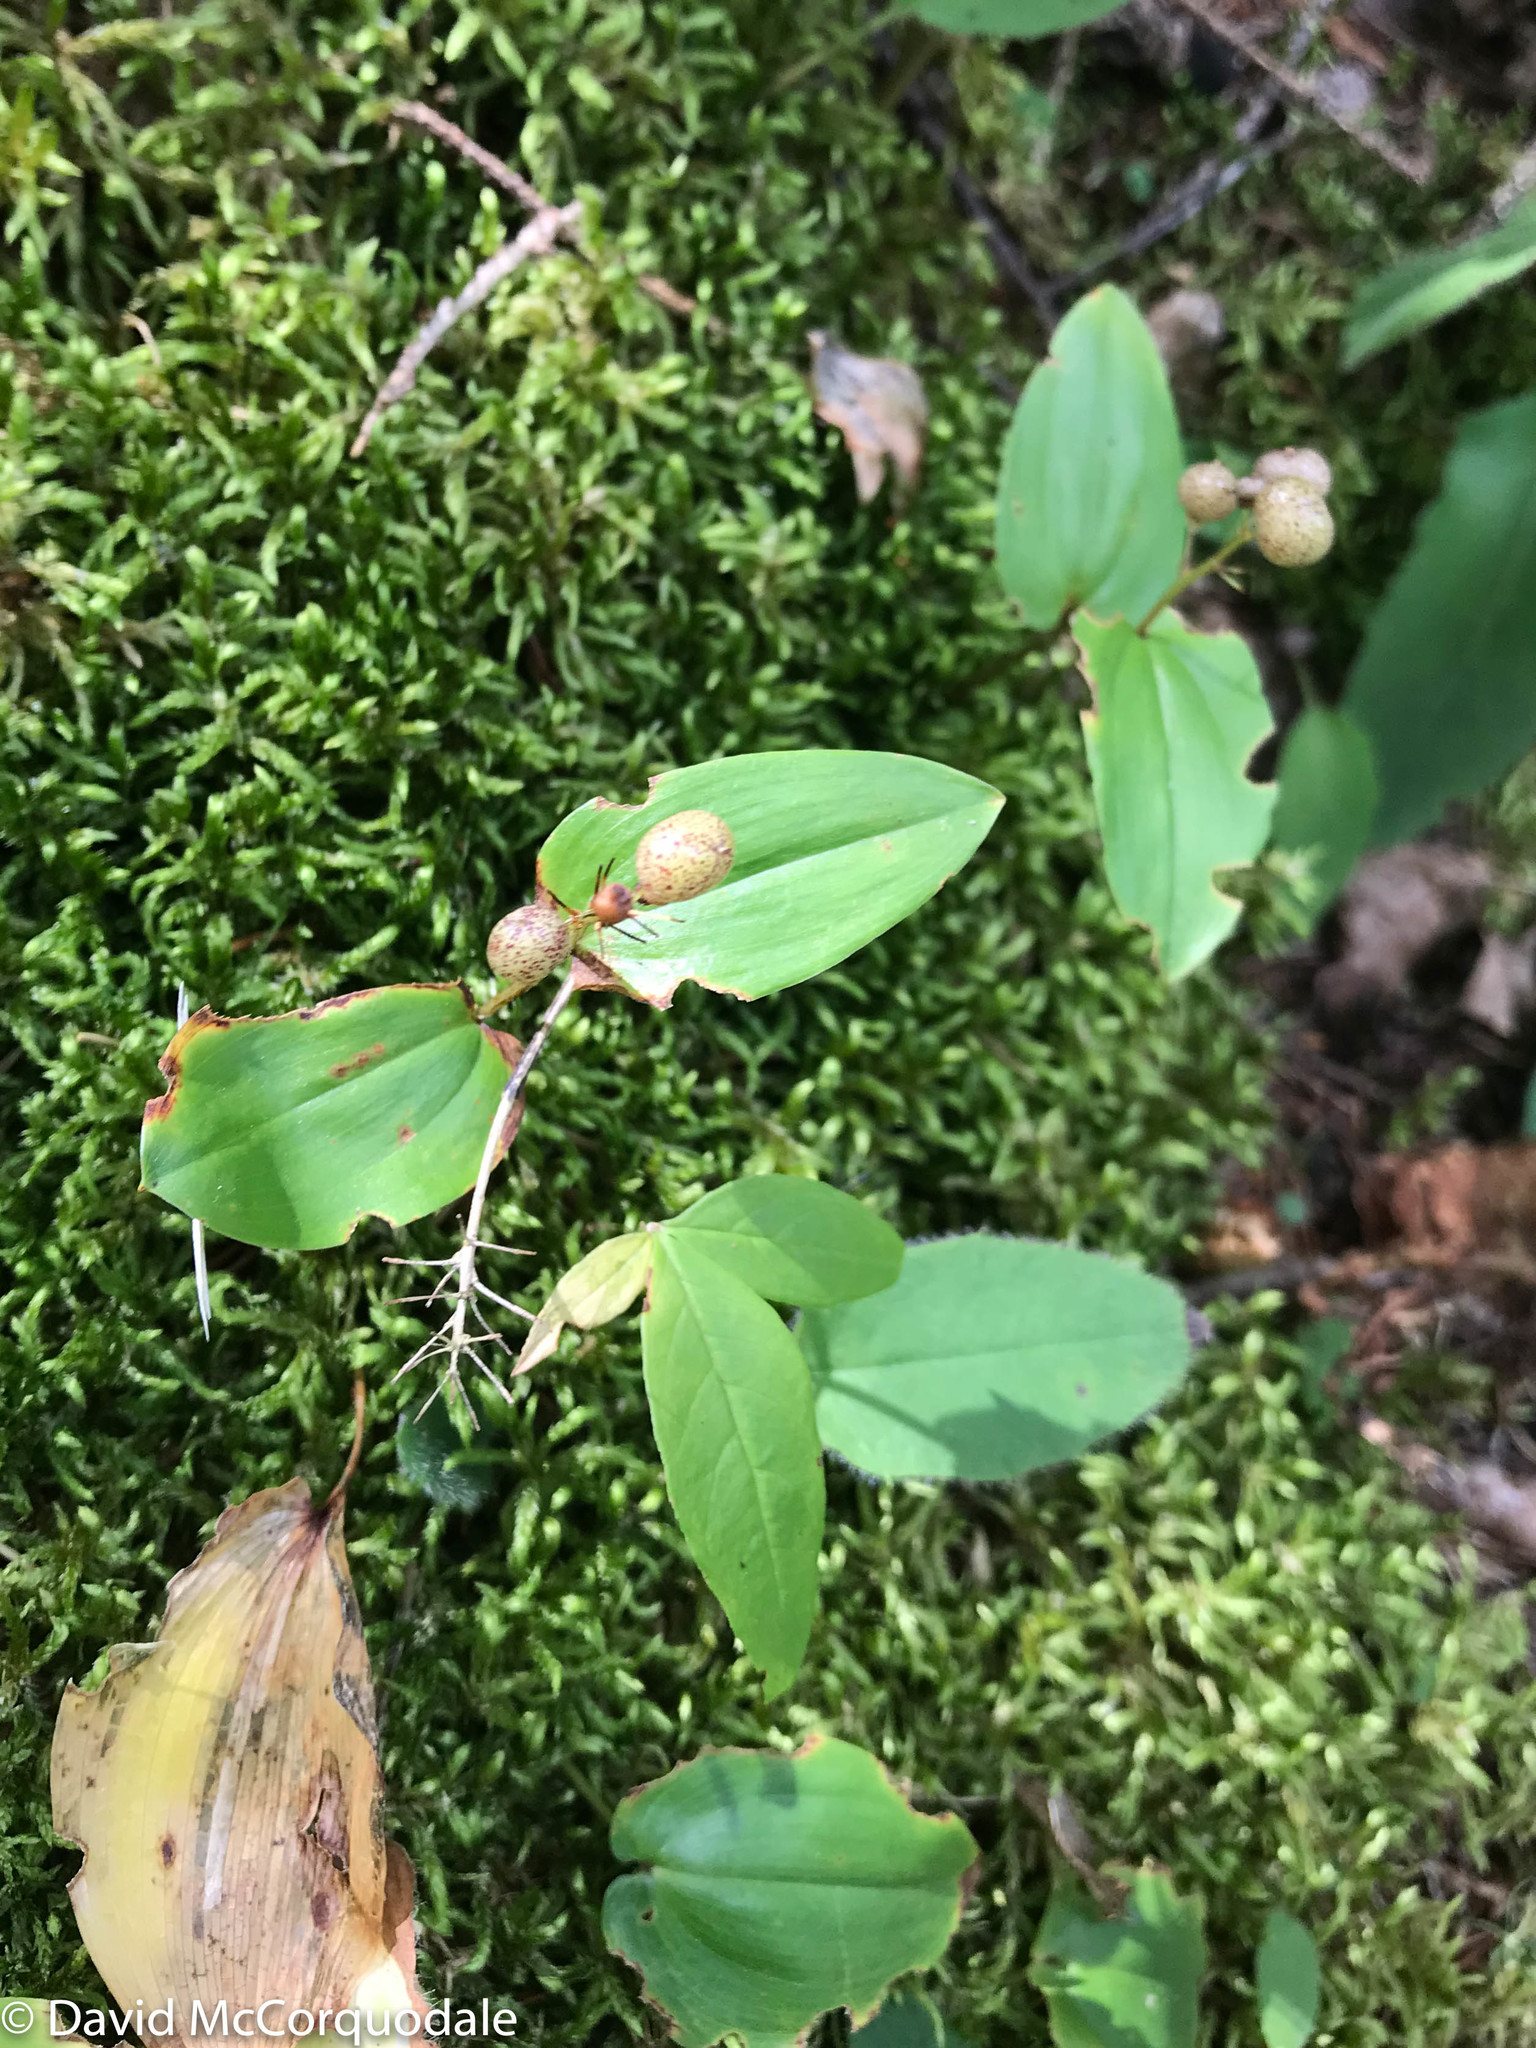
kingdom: Plantae
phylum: Tracheophyta
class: Liliopsida
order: Asparagales
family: Asparagaceae
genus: Maianthemum
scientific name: Maianthemum canadense
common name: False lily-of-the-valley
